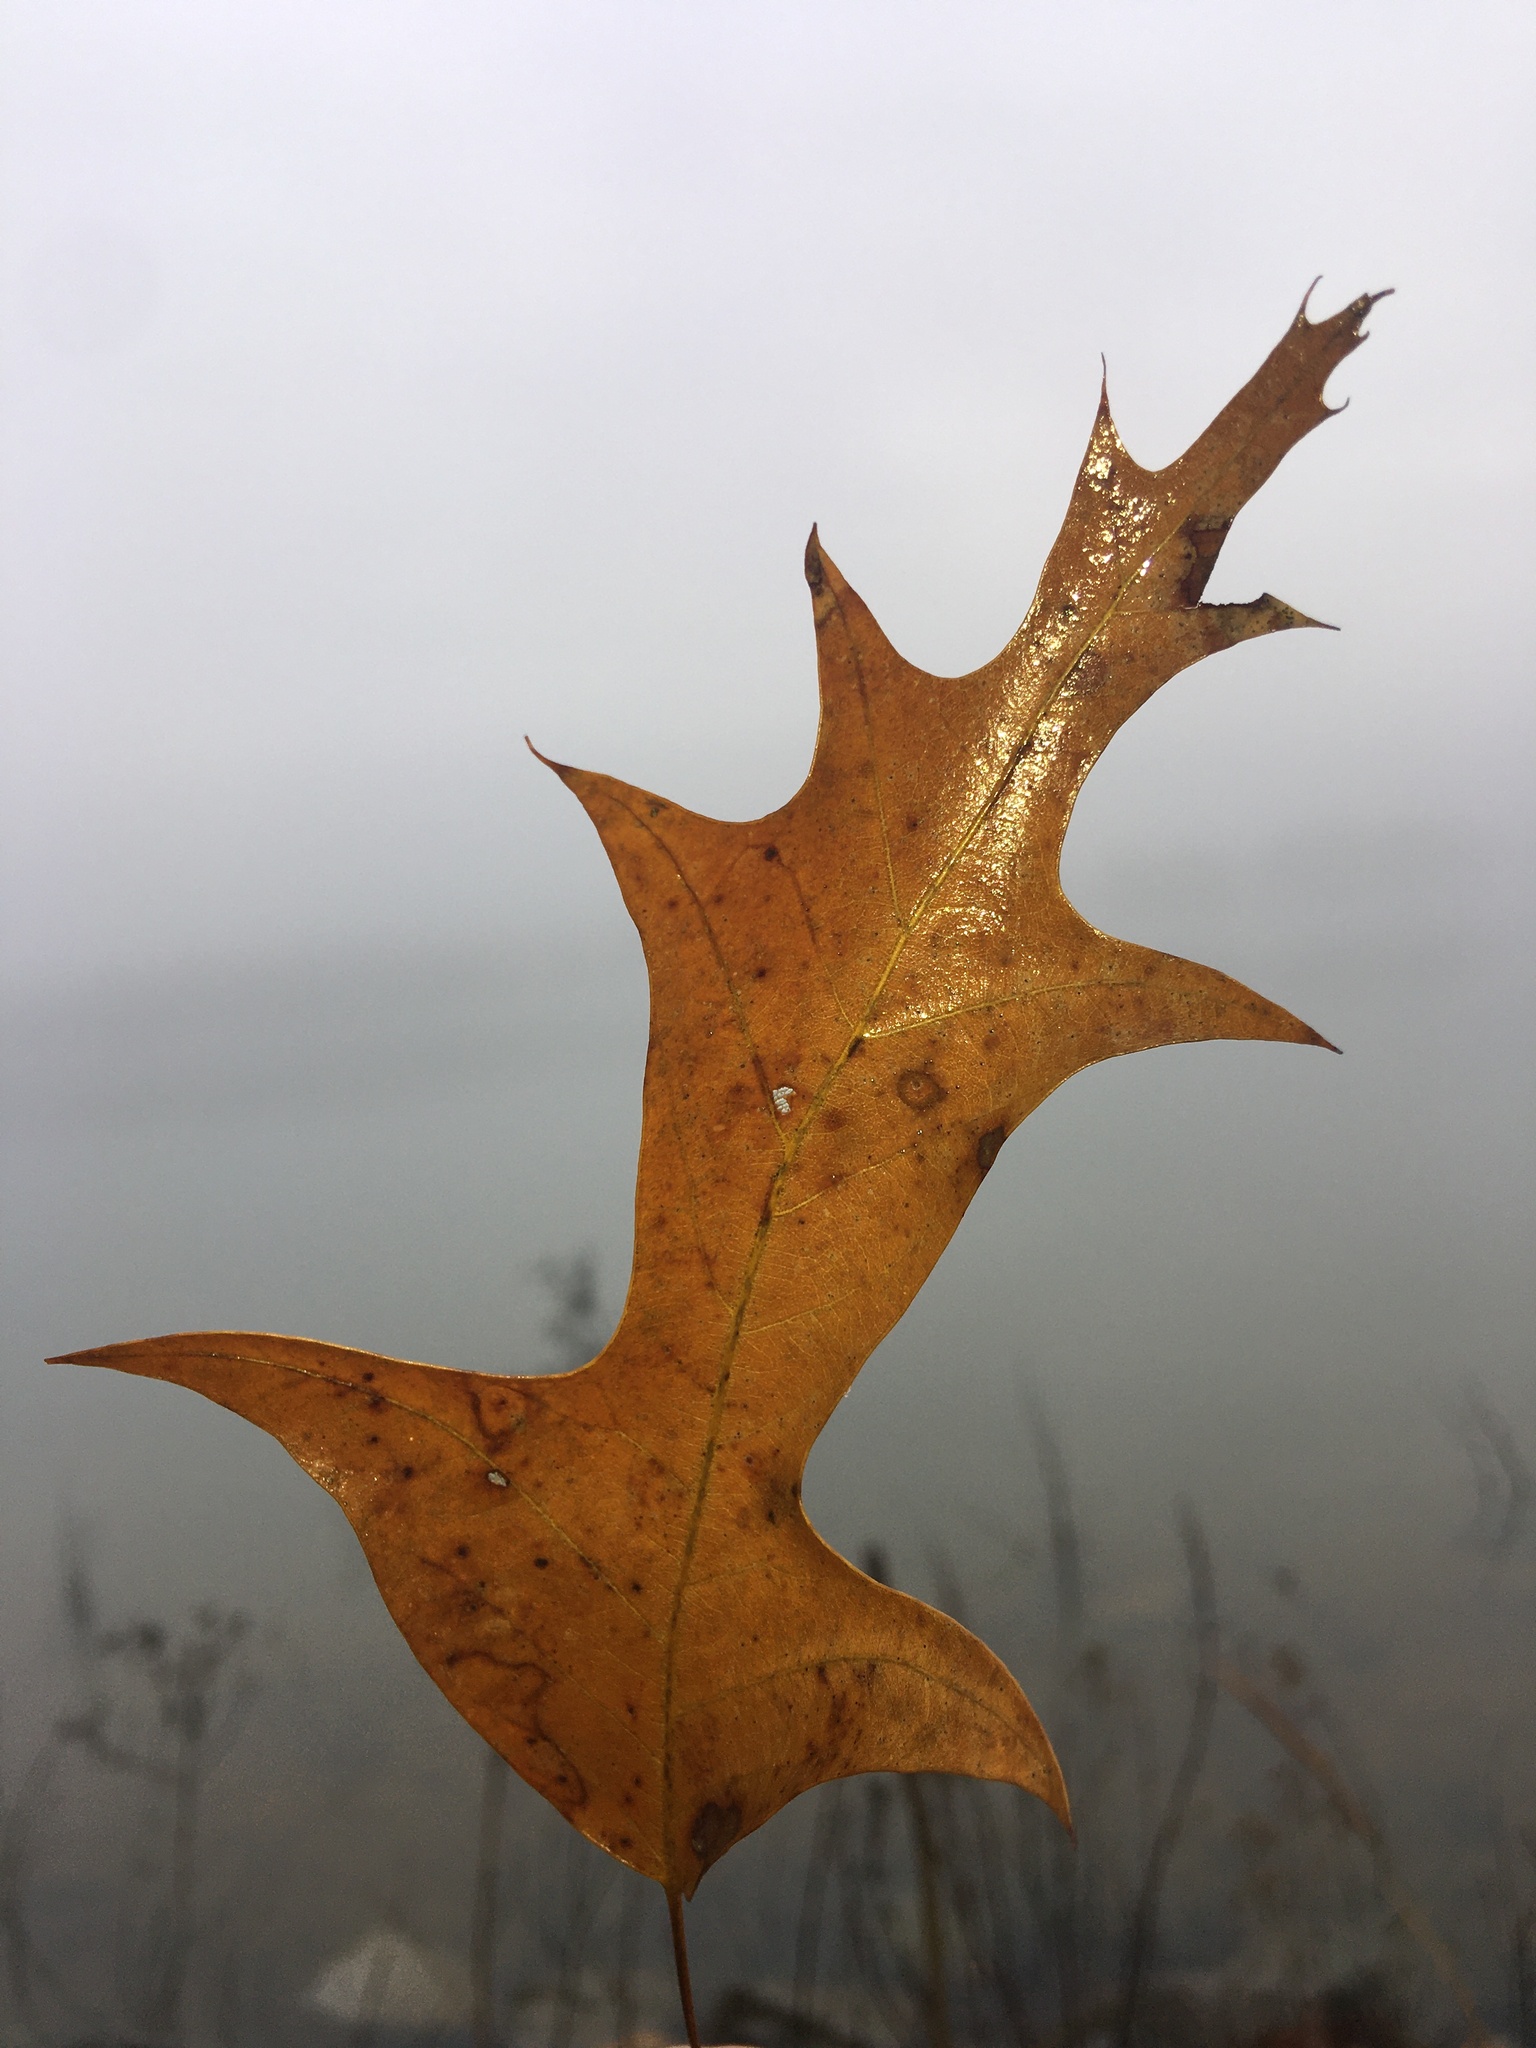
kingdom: Plantae
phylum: Tracheophyta
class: Magnoliopsida
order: Fagales
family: Fagaceae
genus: Quercus
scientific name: Quercus falcata
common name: Southern red oak
